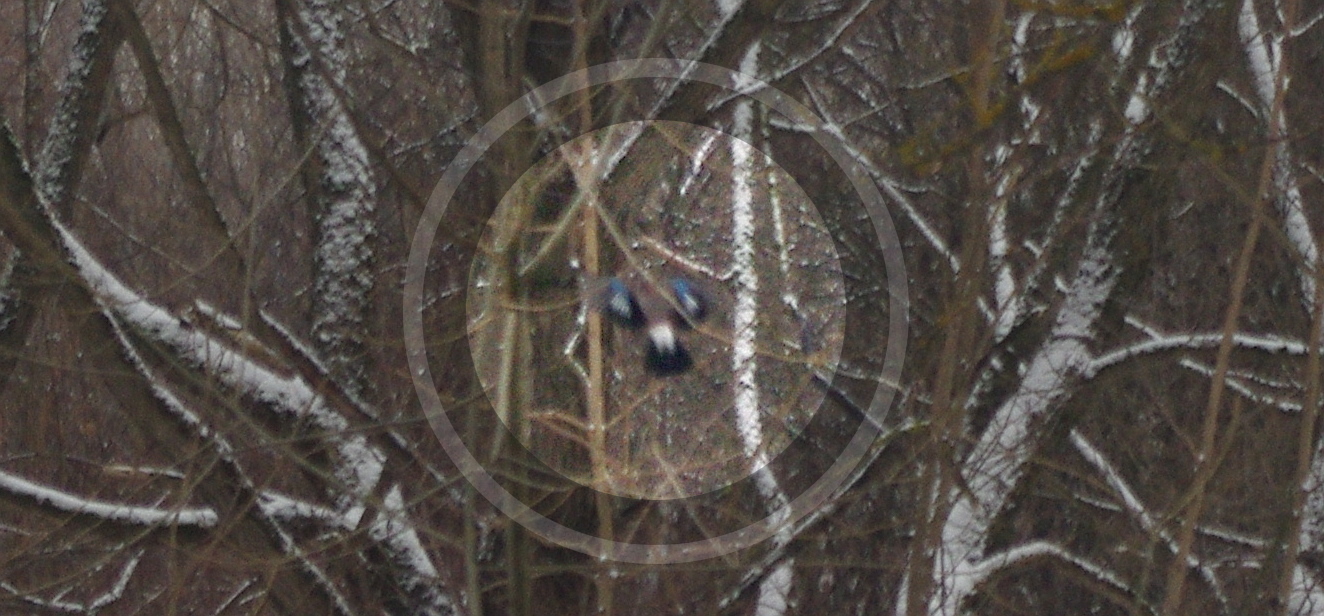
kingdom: Animalia
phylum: Chordata
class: Aves
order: Passeriformes
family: Corvidae
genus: Garrulus
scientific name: Garrulus glandarius
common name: Eurasian jay
